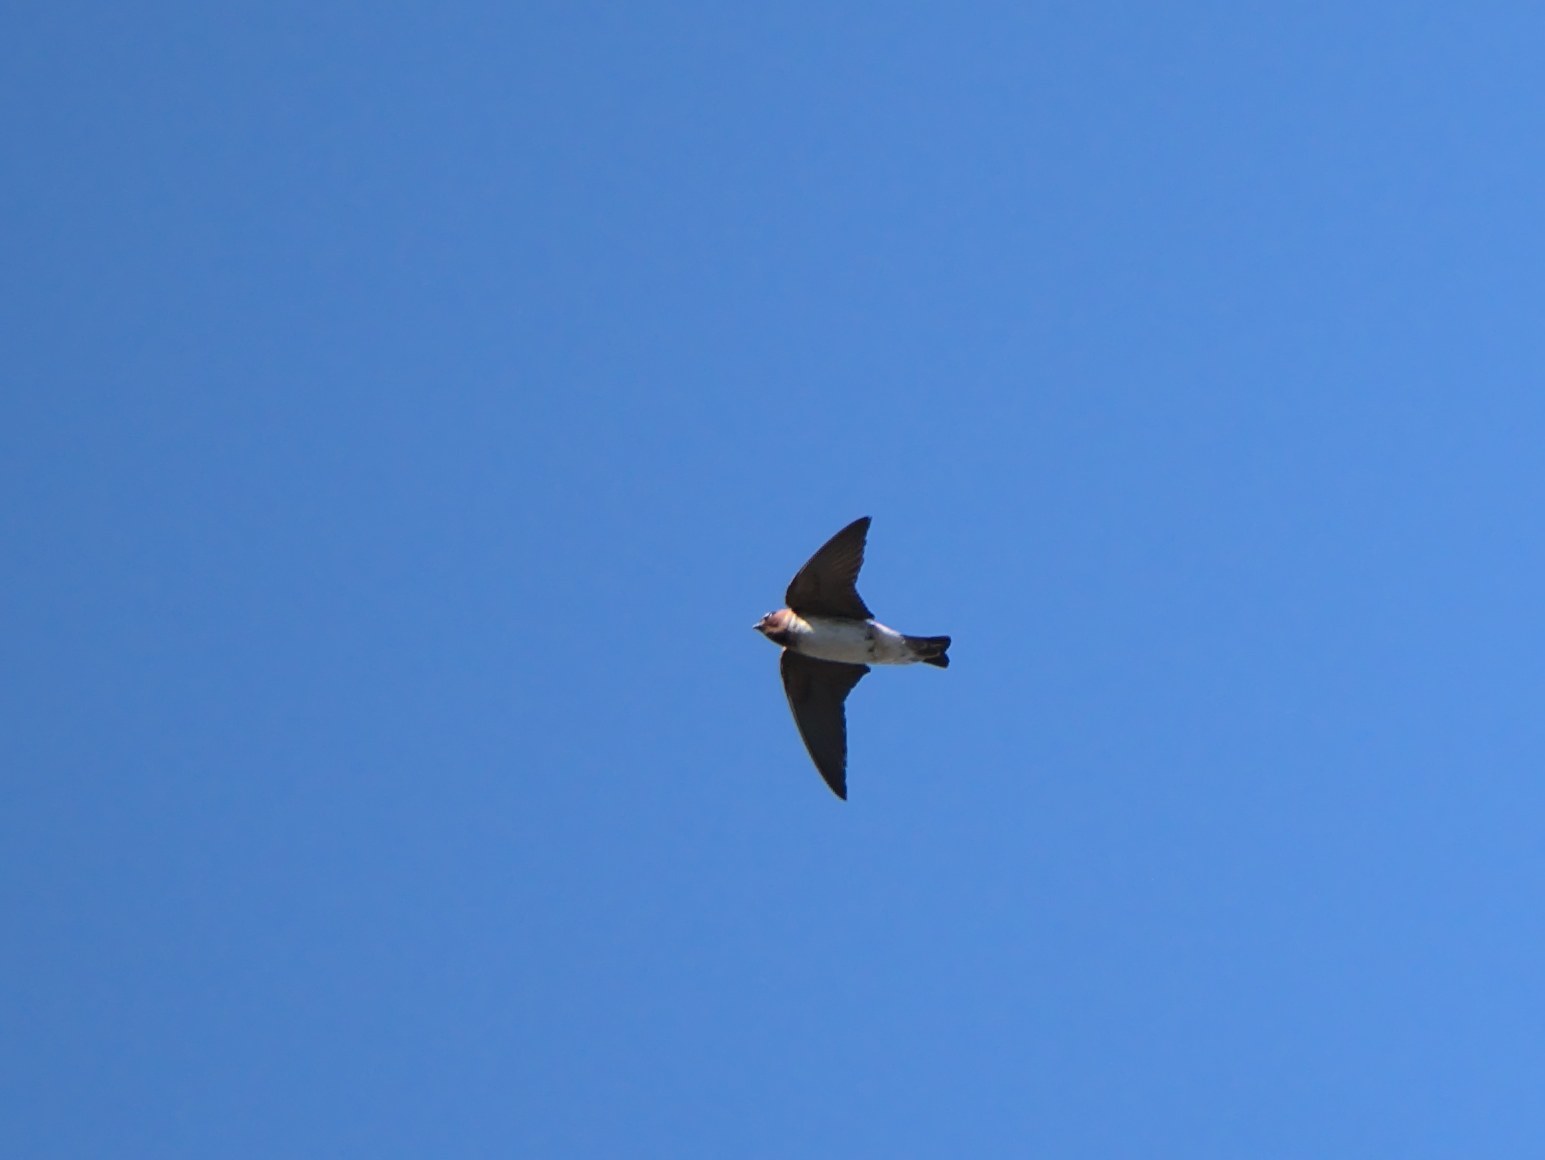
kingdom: Animalia
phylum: Chordata
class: Aves
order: Passeriformes
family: Hirundinidae
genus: Petrochelidon
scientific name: Petrochelidon pyrrhonota
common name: American cliff swallow
